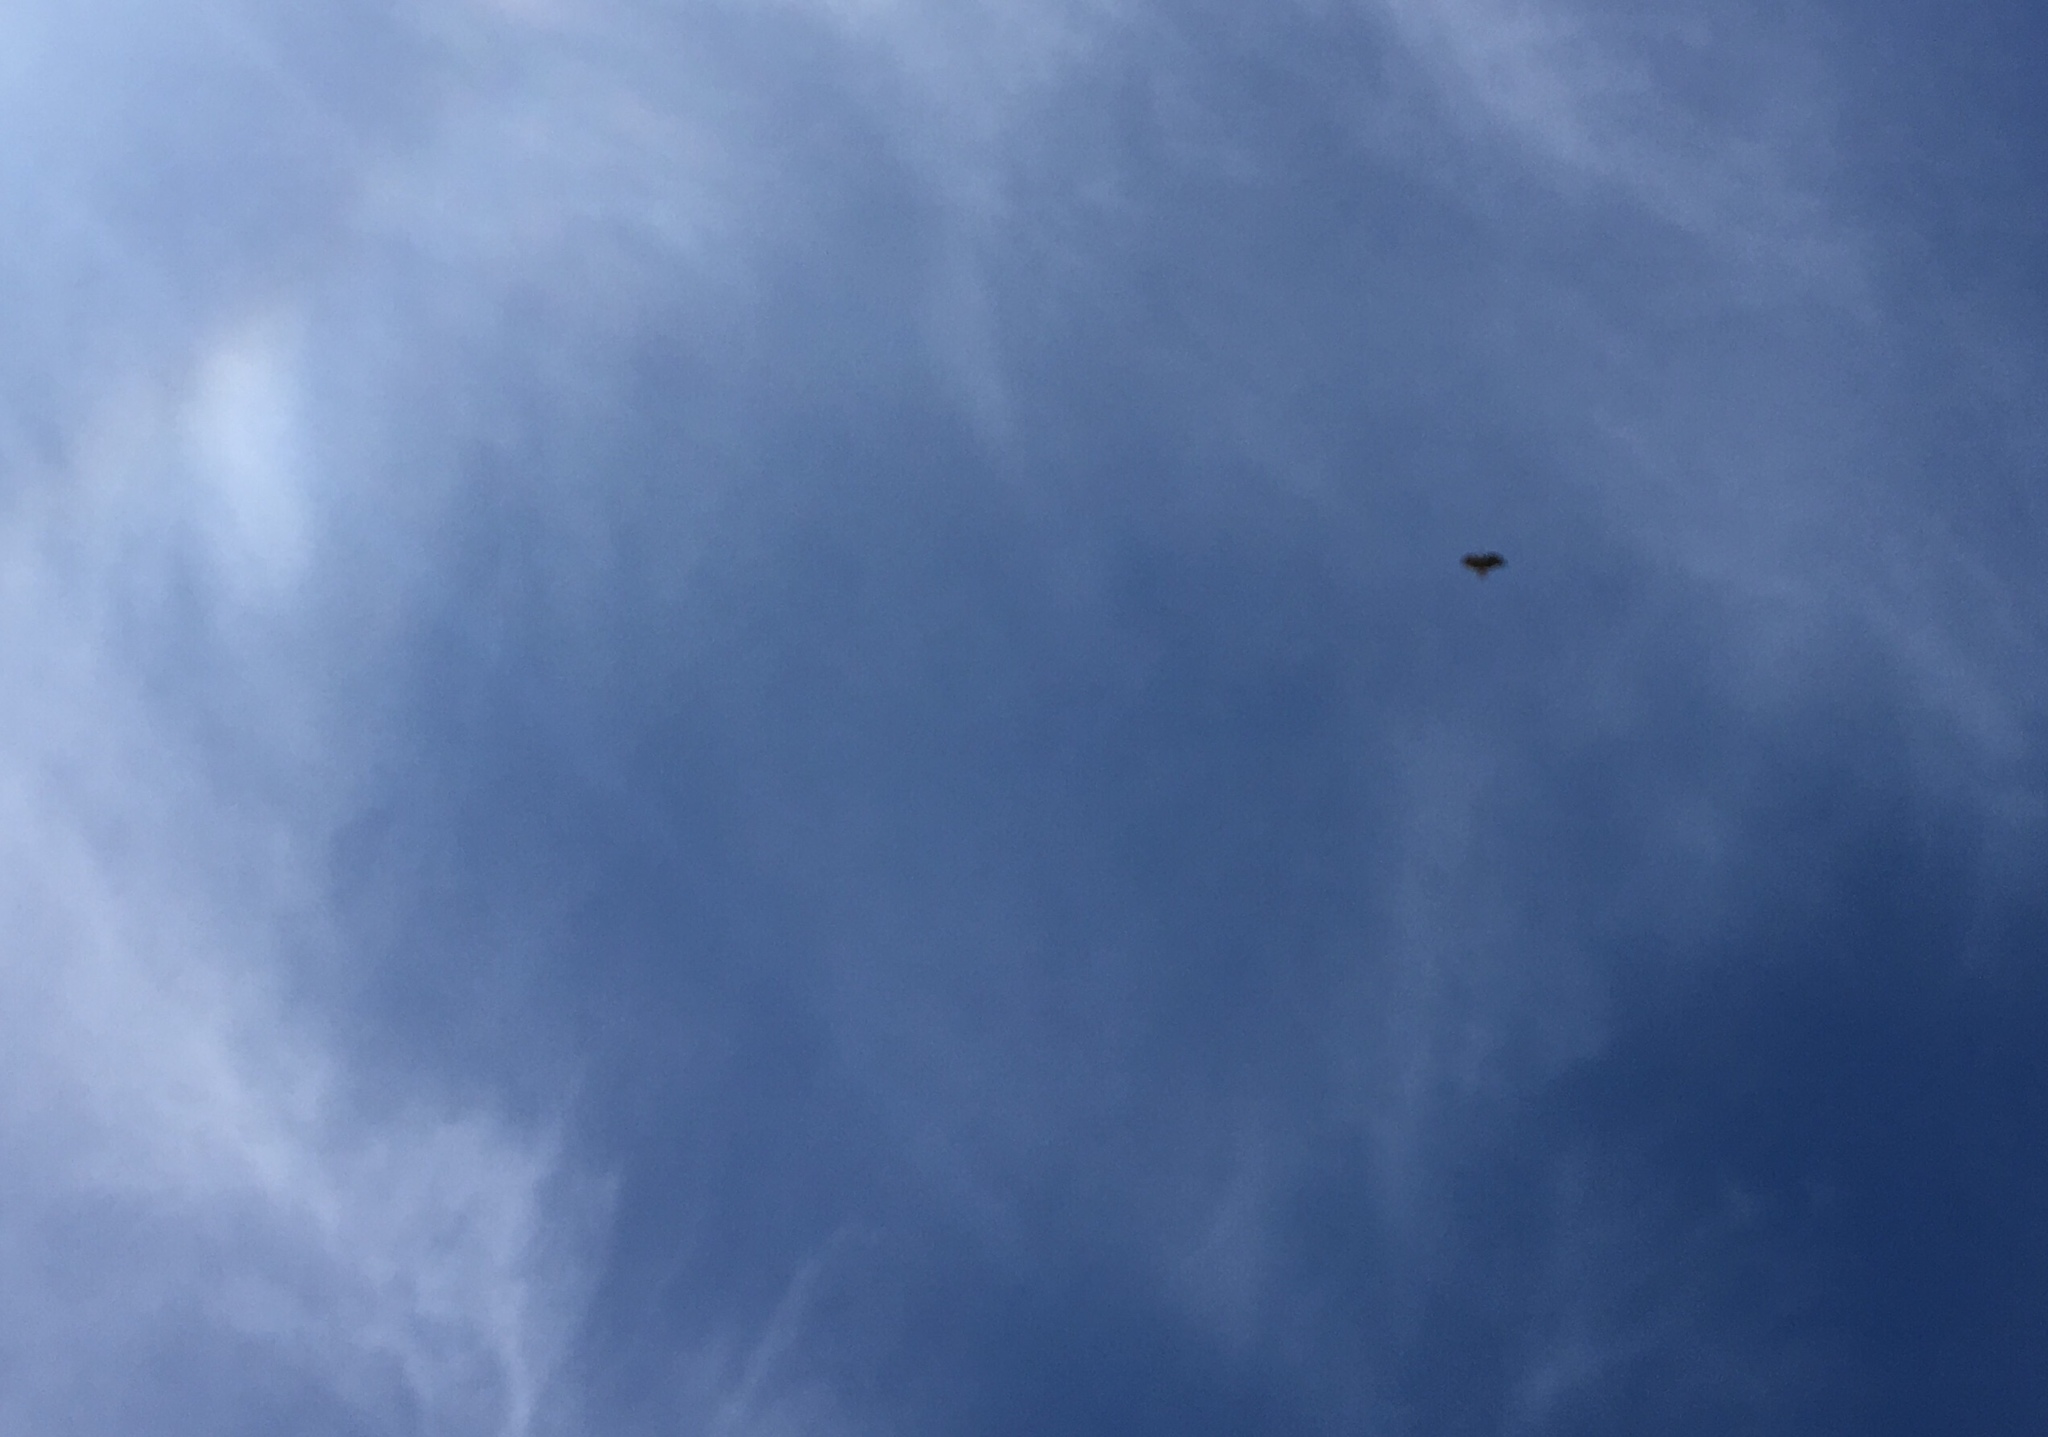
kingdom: Animalia
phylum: Chordata
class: Aves
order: Accipitriformes
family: Accipitridae
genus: Buteo
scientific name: Buteo jamaicensis
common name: Red-tailed hawk
